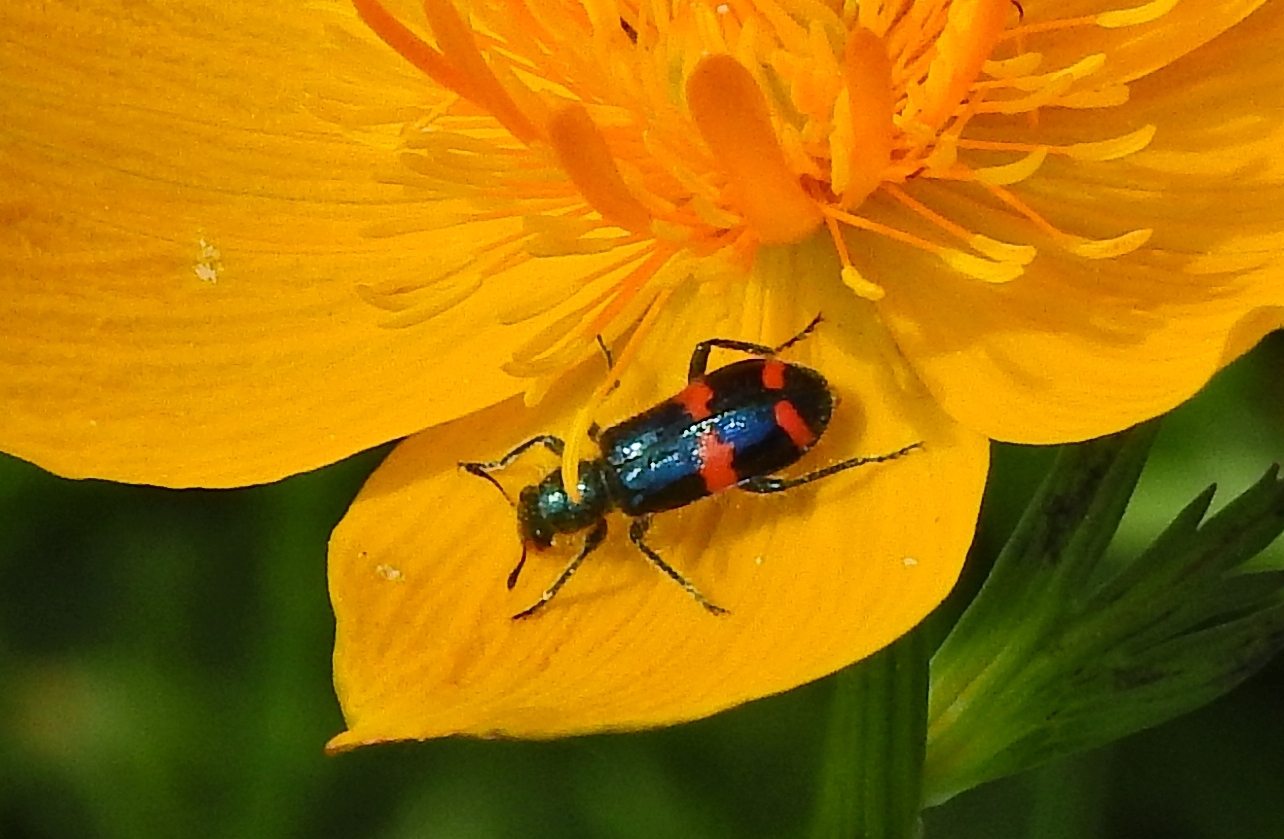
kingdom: Animalia
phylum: Arthropoda
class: Insecta
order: Coleoptera
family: Cleridae
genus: Trichodes
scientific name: Trichodes
